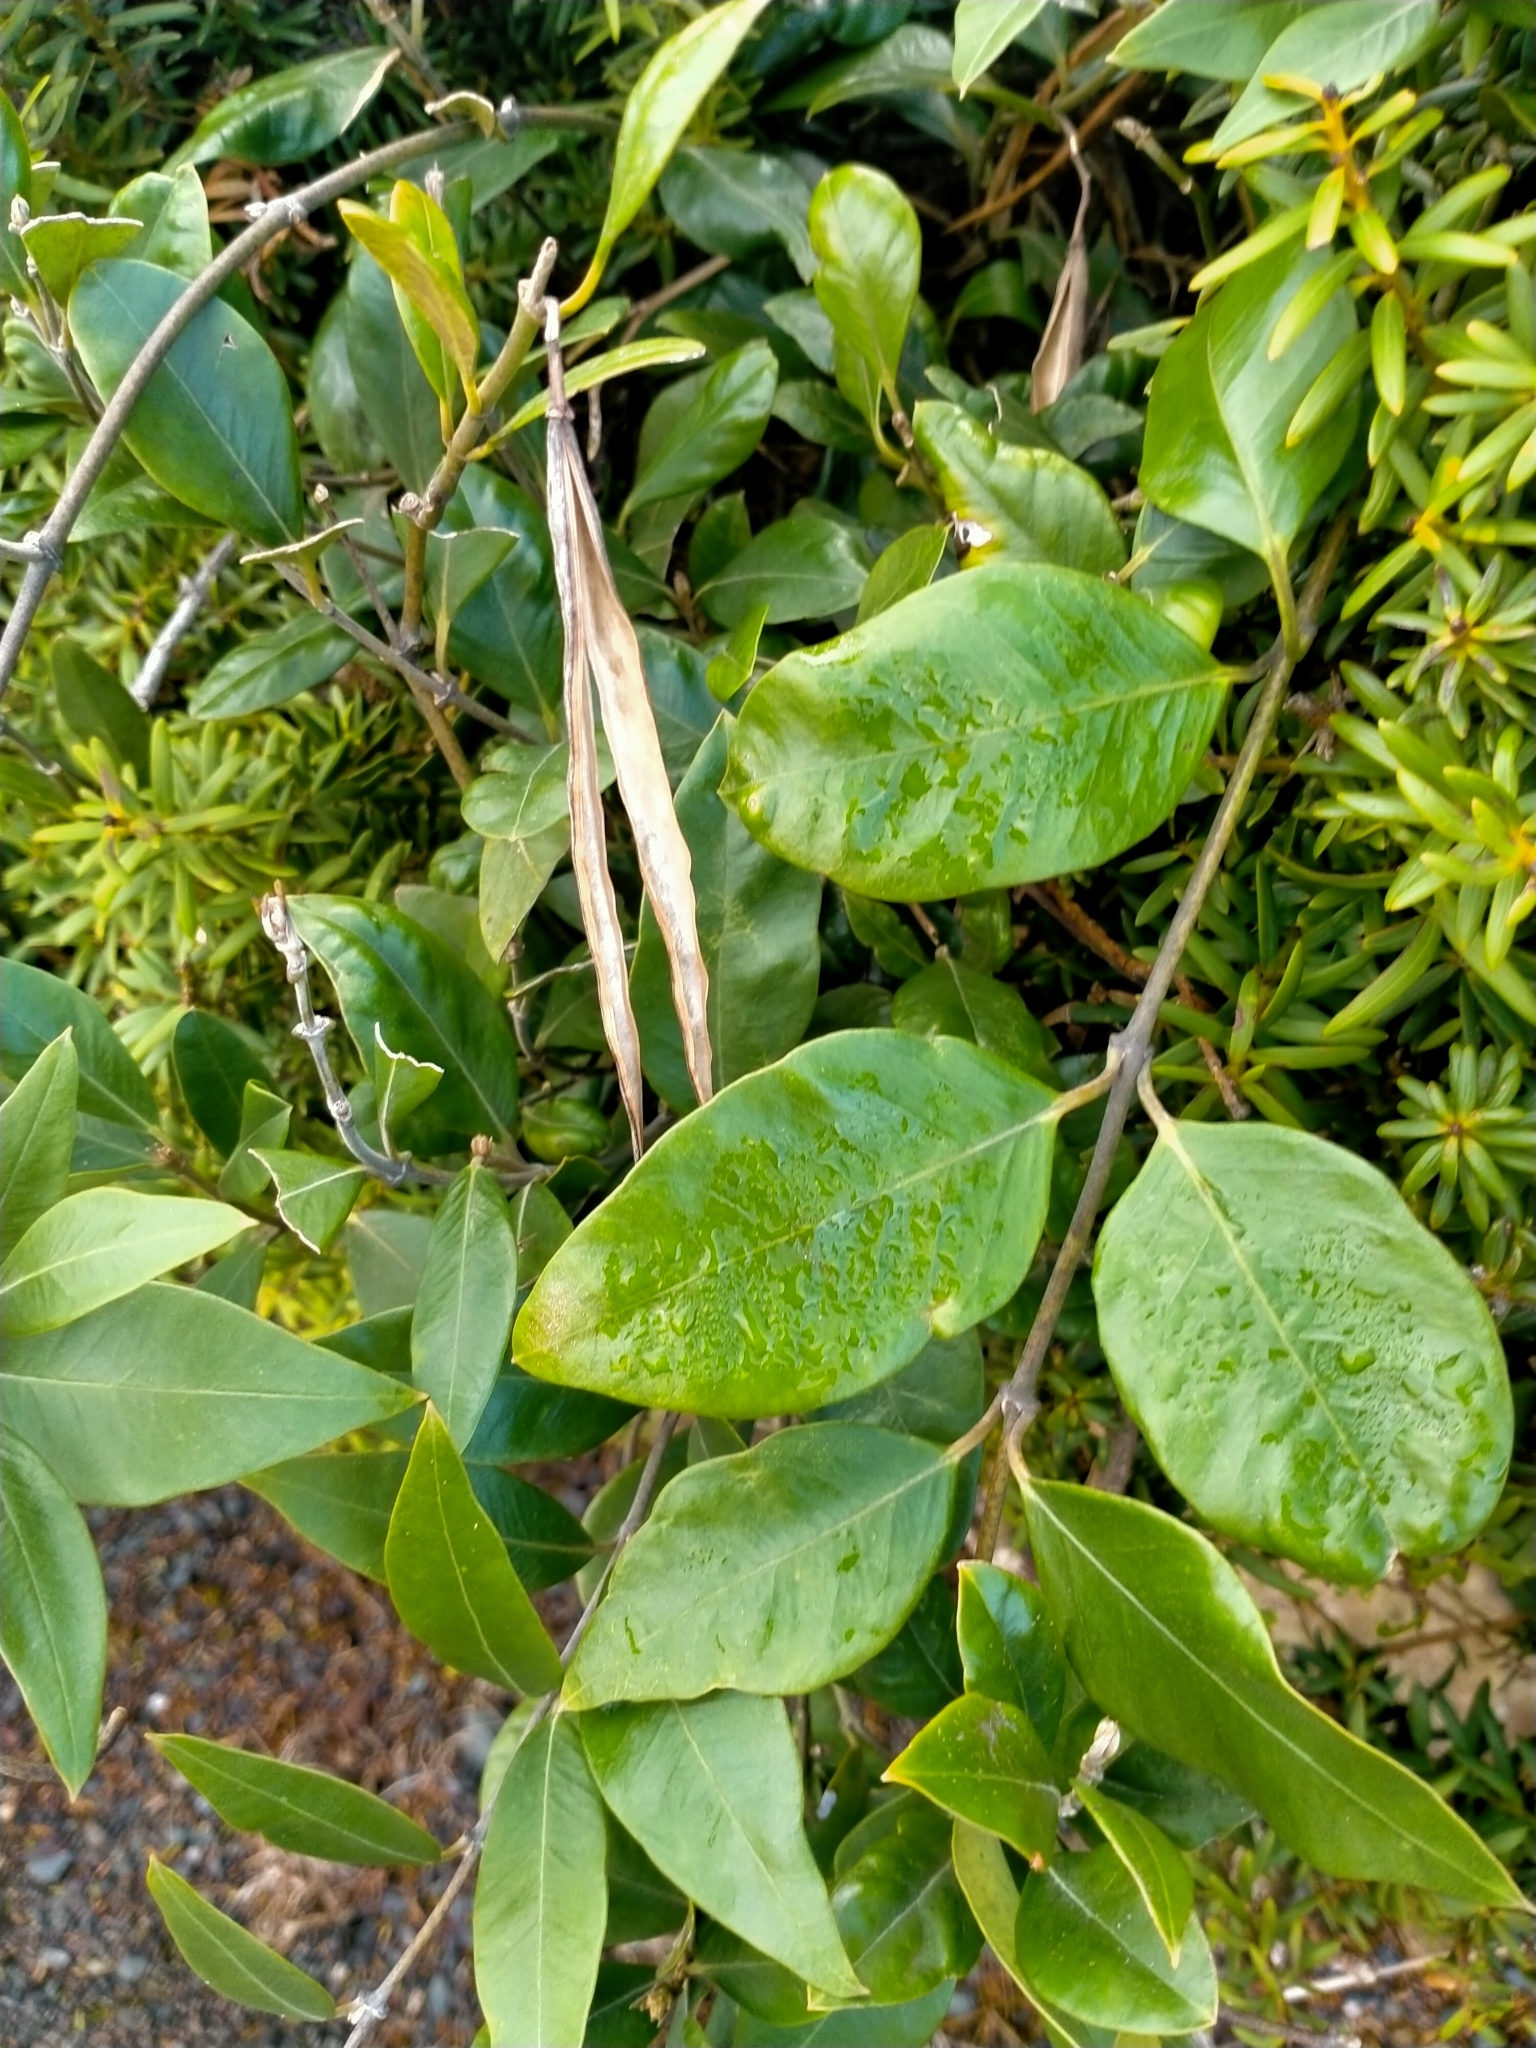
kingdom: Plantae
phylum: Tracheophyta
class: Magnoliopsida
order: Gentianales
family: Apocynaceae
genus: Parsonsia
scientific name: Parsonsia heterophylla
